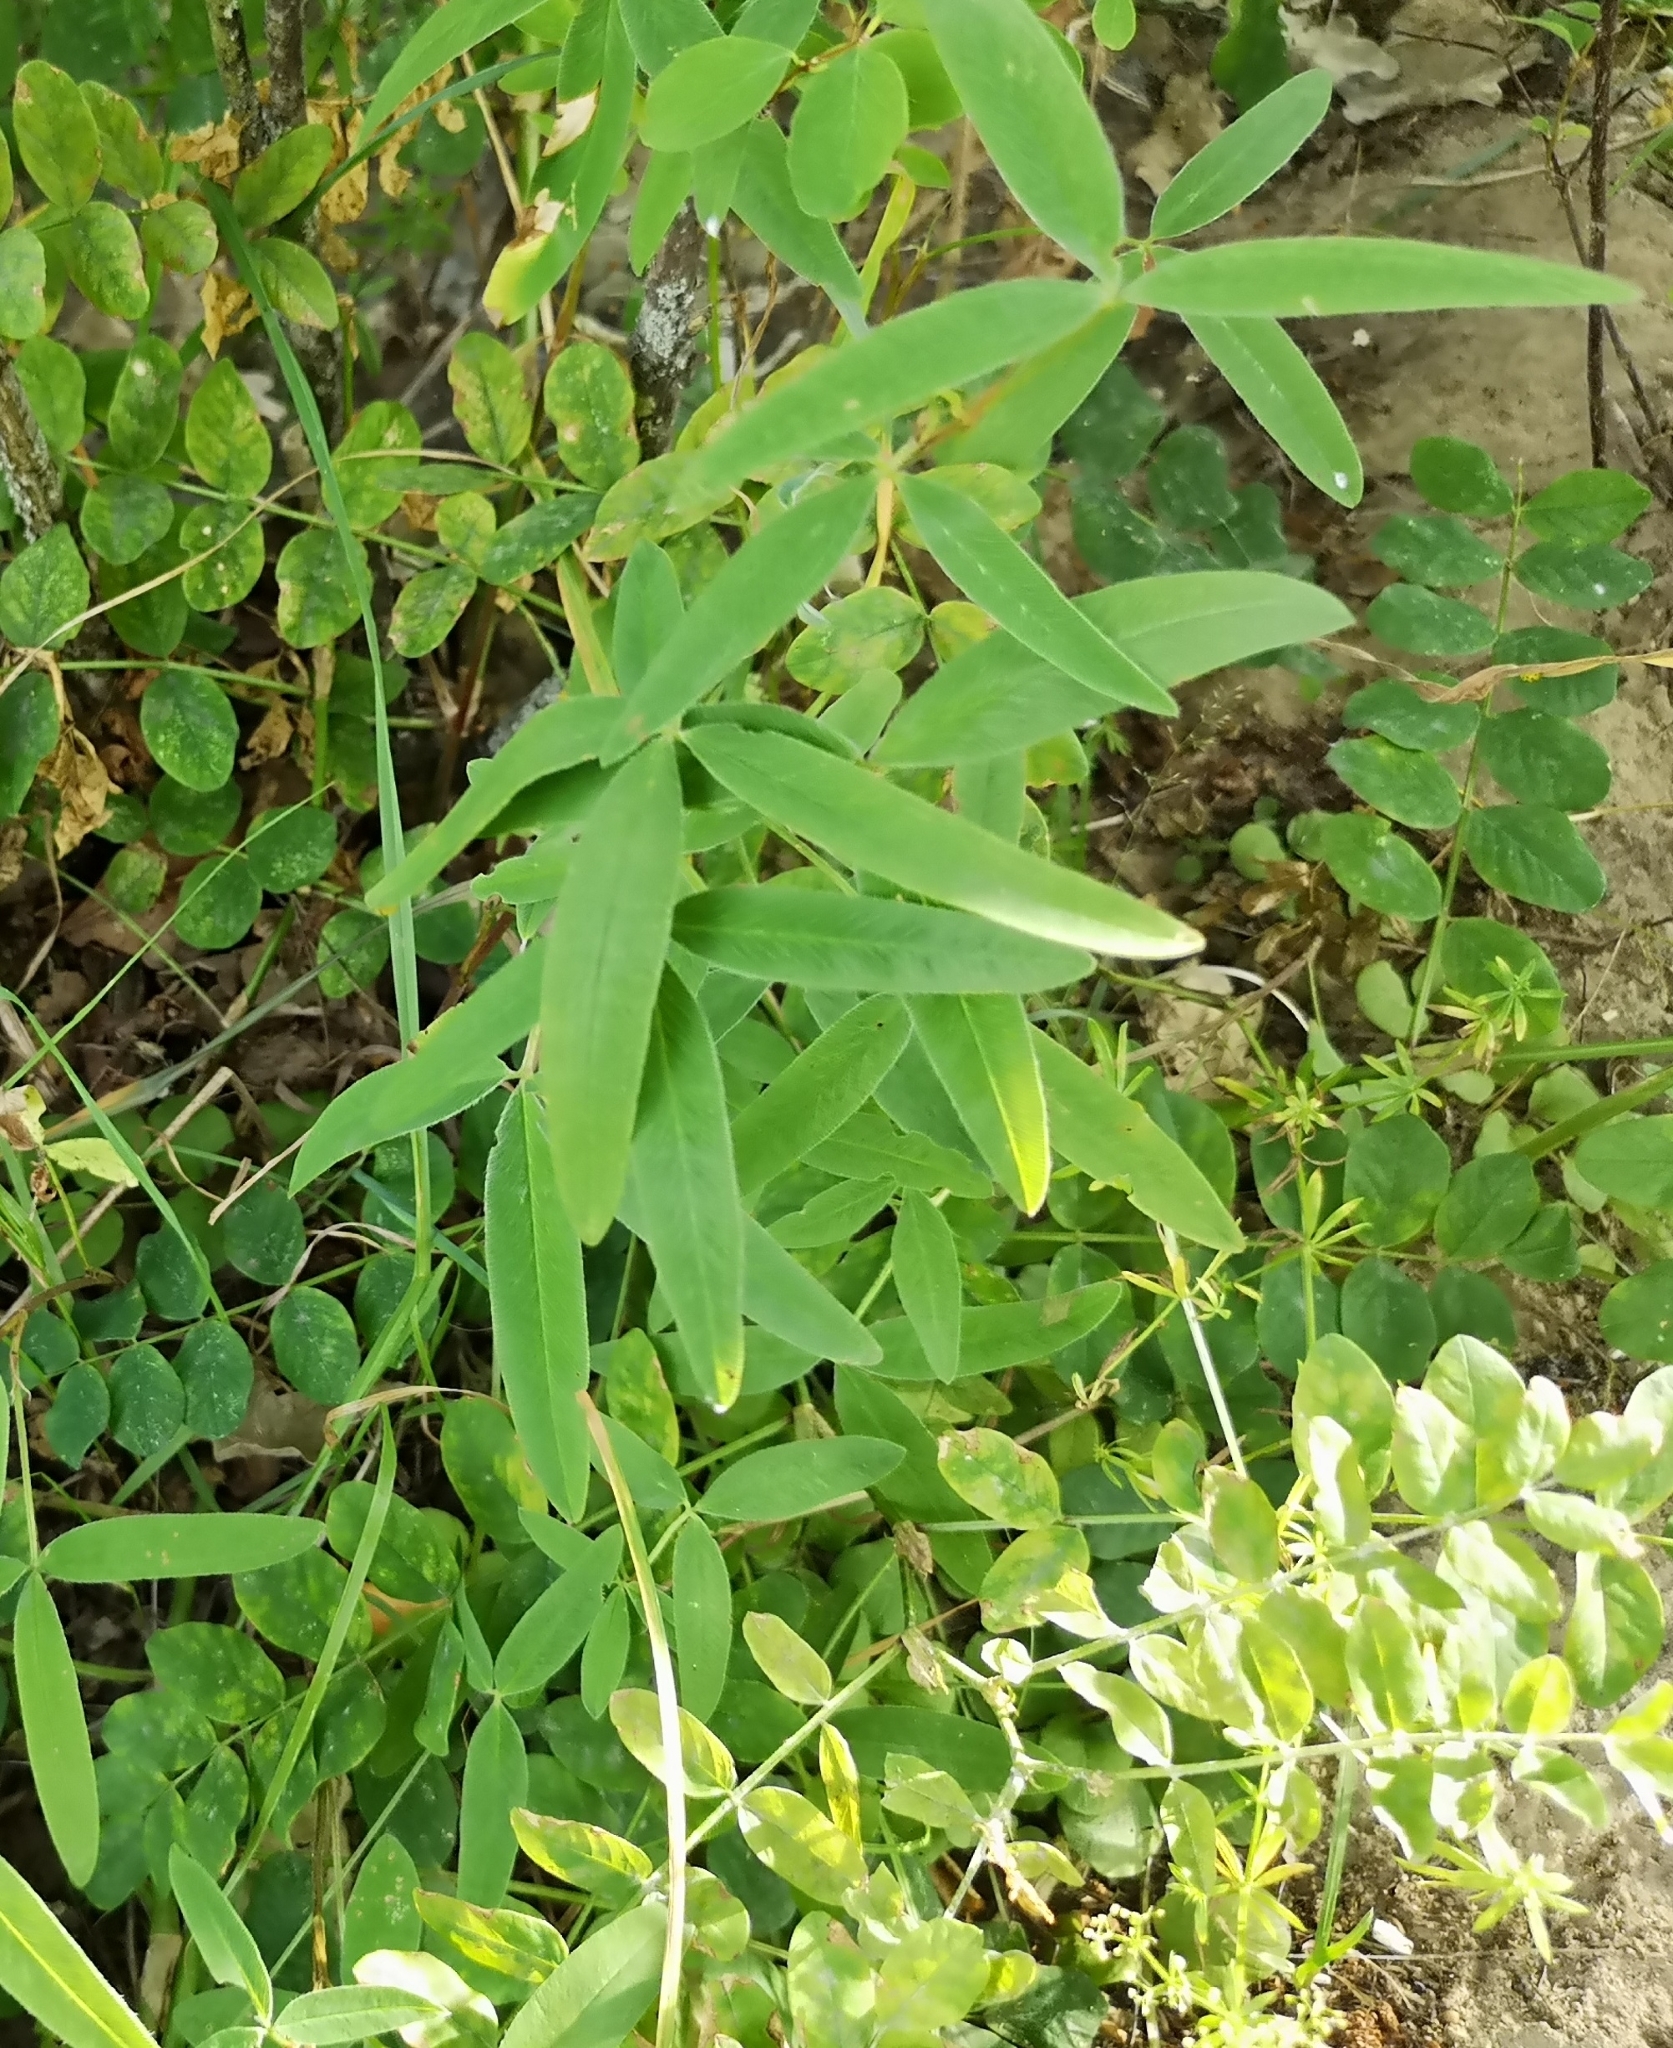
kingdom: Plantae
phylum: Tracheophyta
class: Magnoliopsida
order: Fabales
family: Fabaceae
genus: Trifolium
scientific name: Trifolium alpestre
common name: Owl-head clover
